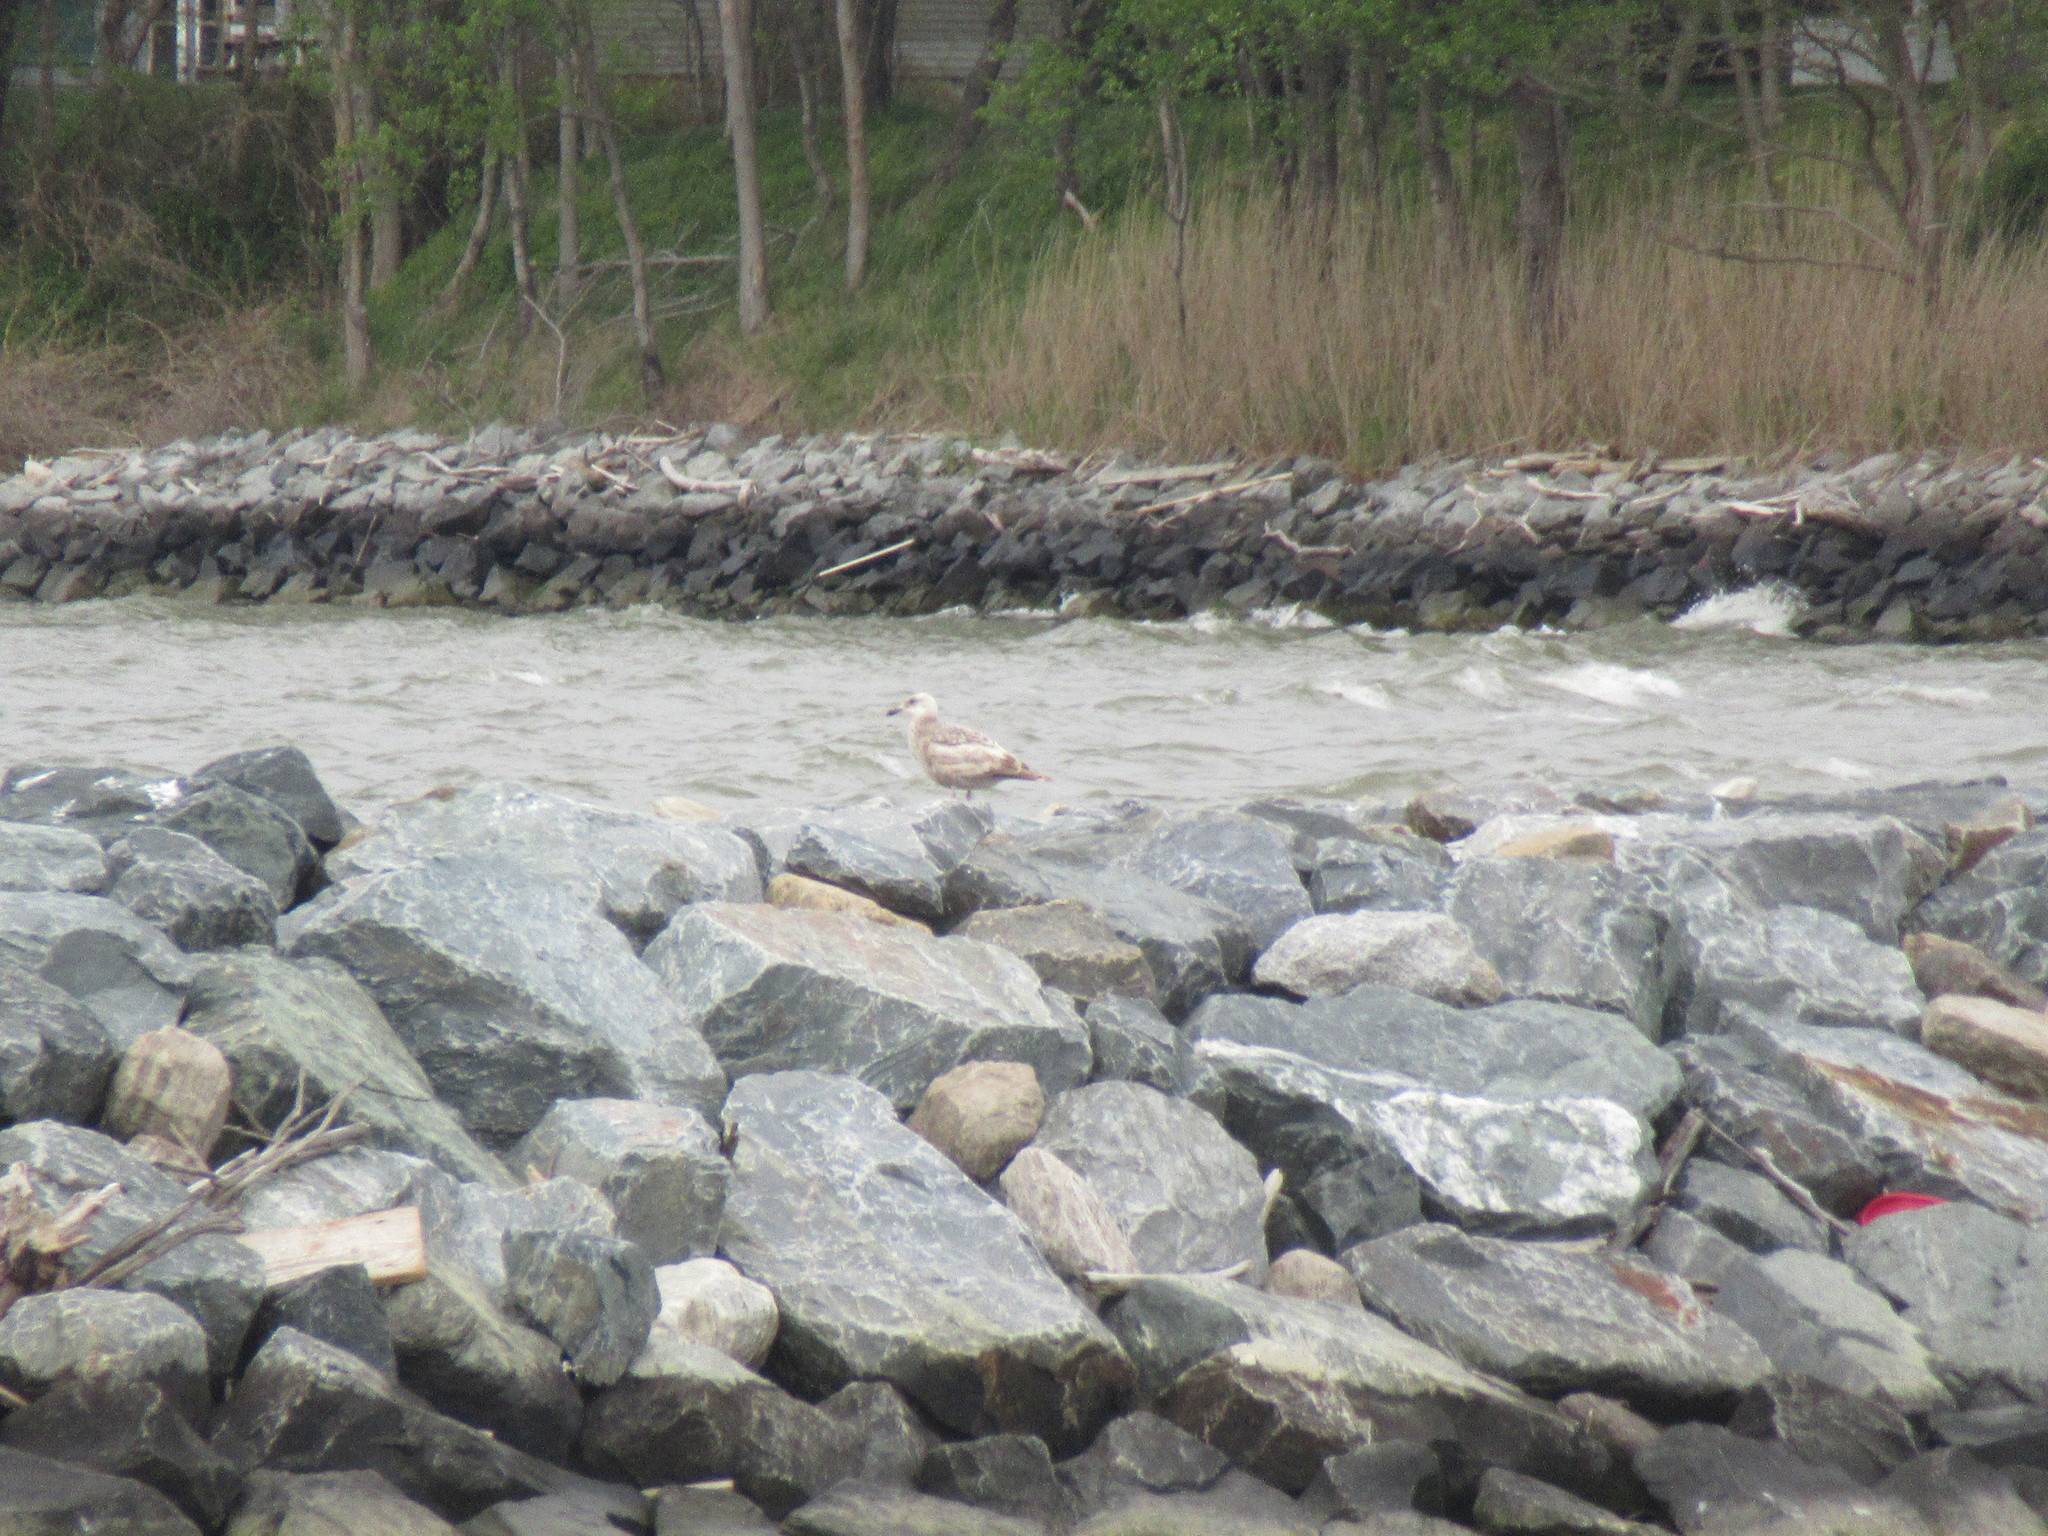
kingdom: Animalia
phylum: Chordata
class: Aves
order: Charadriiformes
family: Laridae
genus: Larus
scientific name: Larus argentatus
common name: Herring gull
